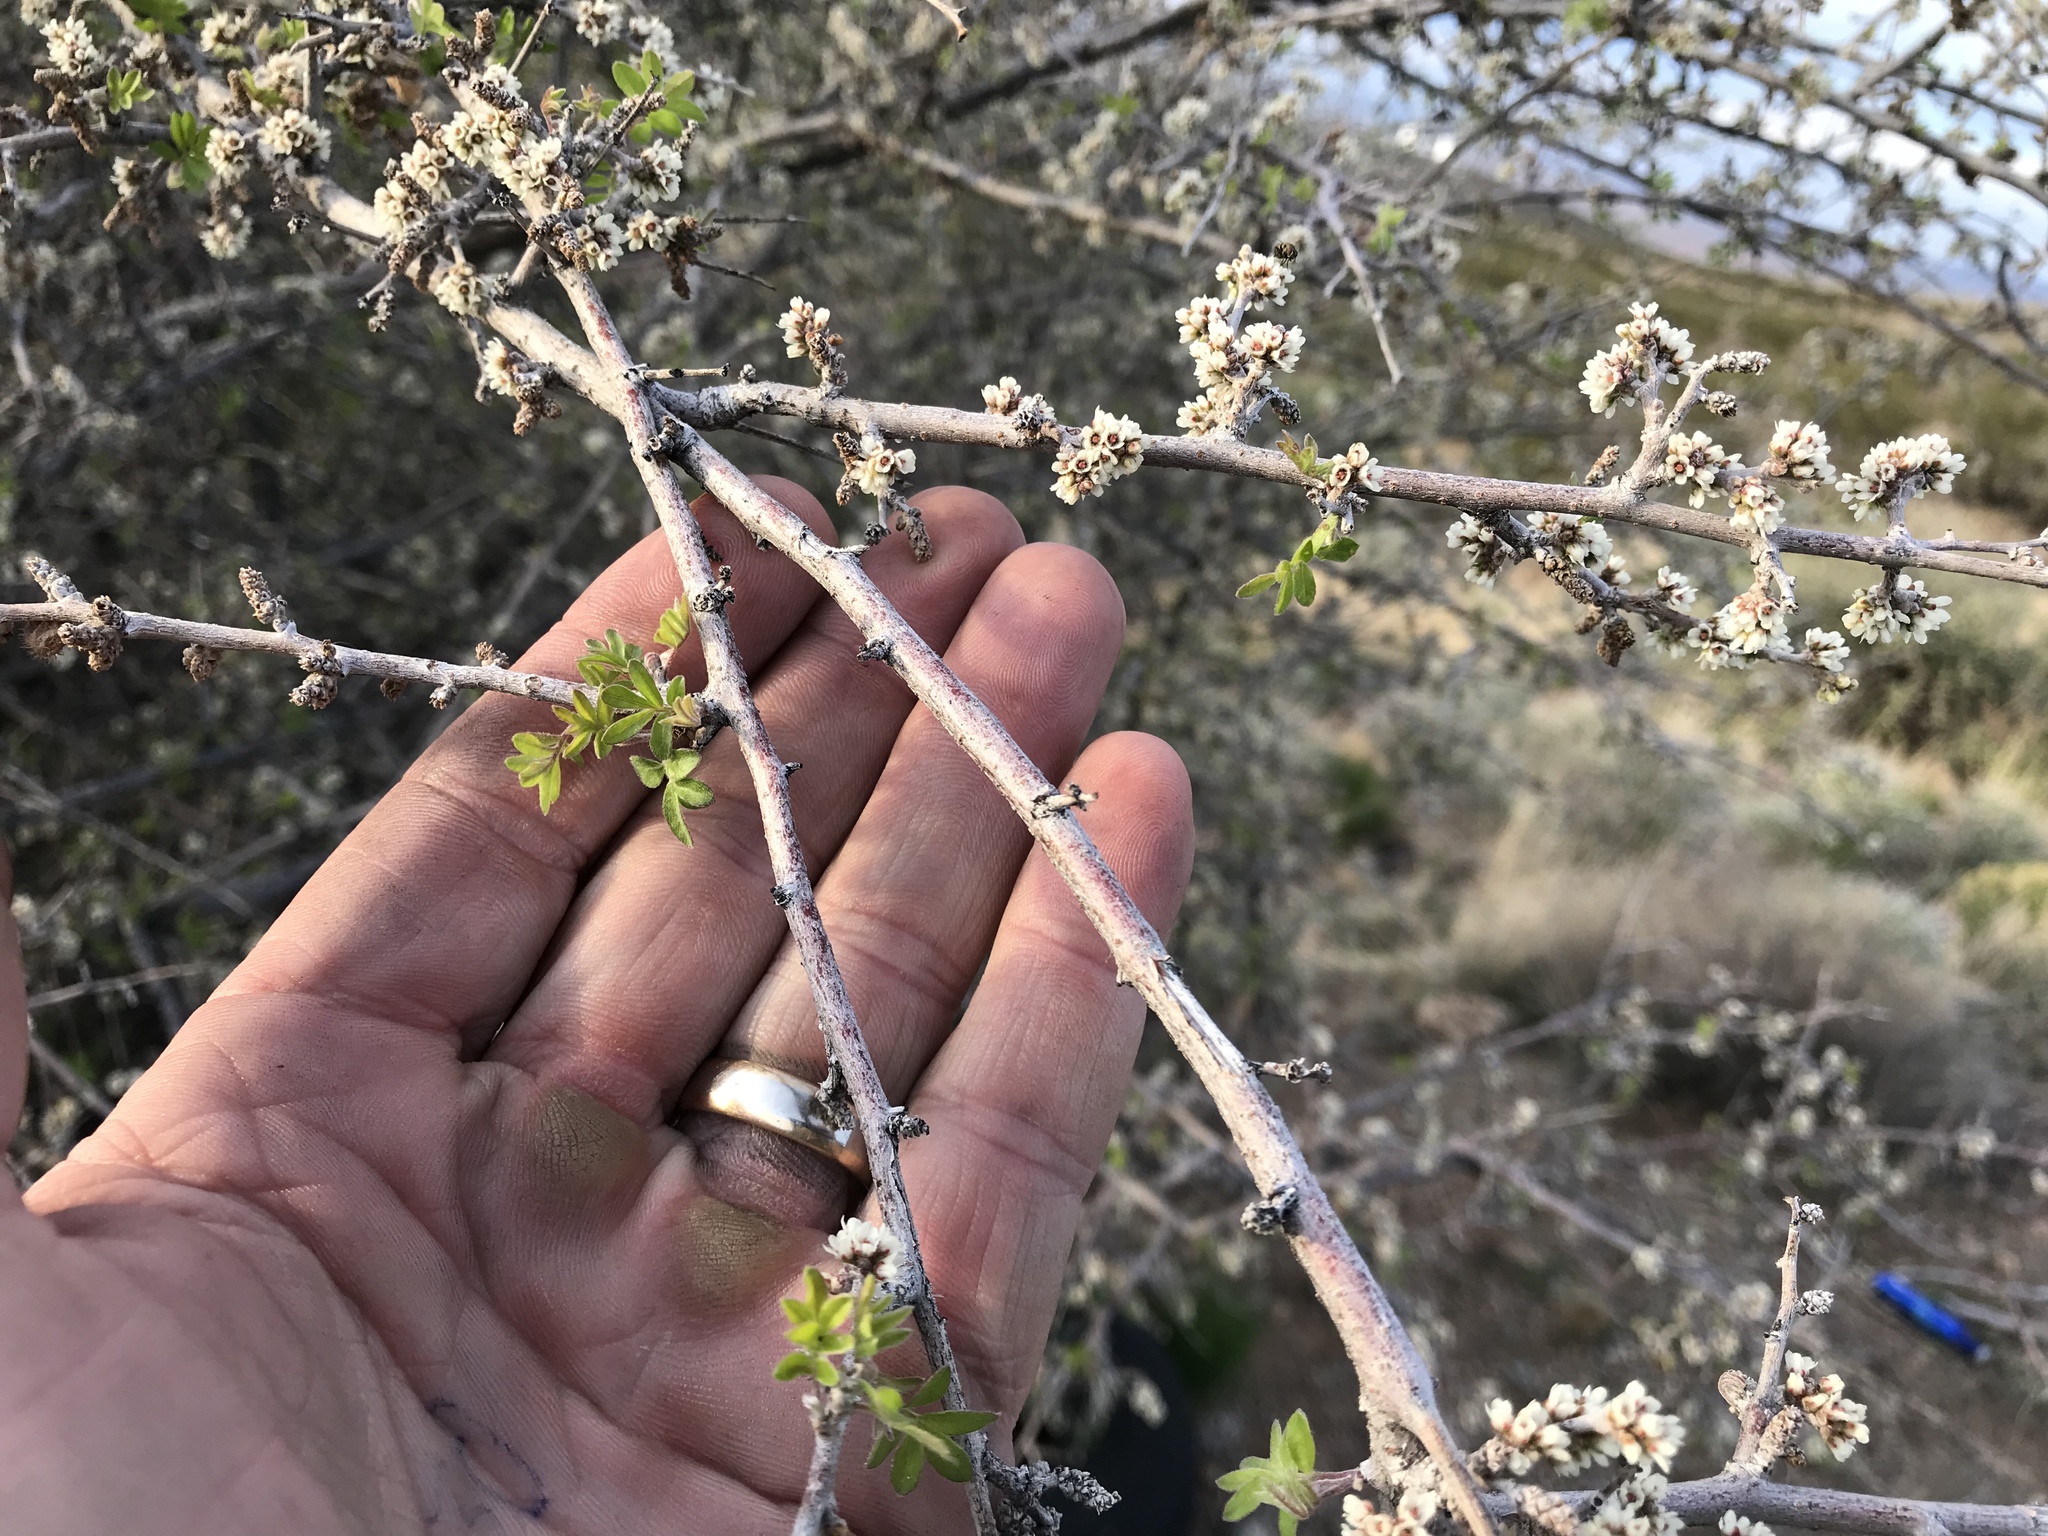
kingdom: Plantae
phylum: Tracheophyta
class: Magnoliopsida
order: Sapindales
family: Anacardiaceae
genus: Rhus
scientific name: Rhus microphylla
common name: Desert sumac
